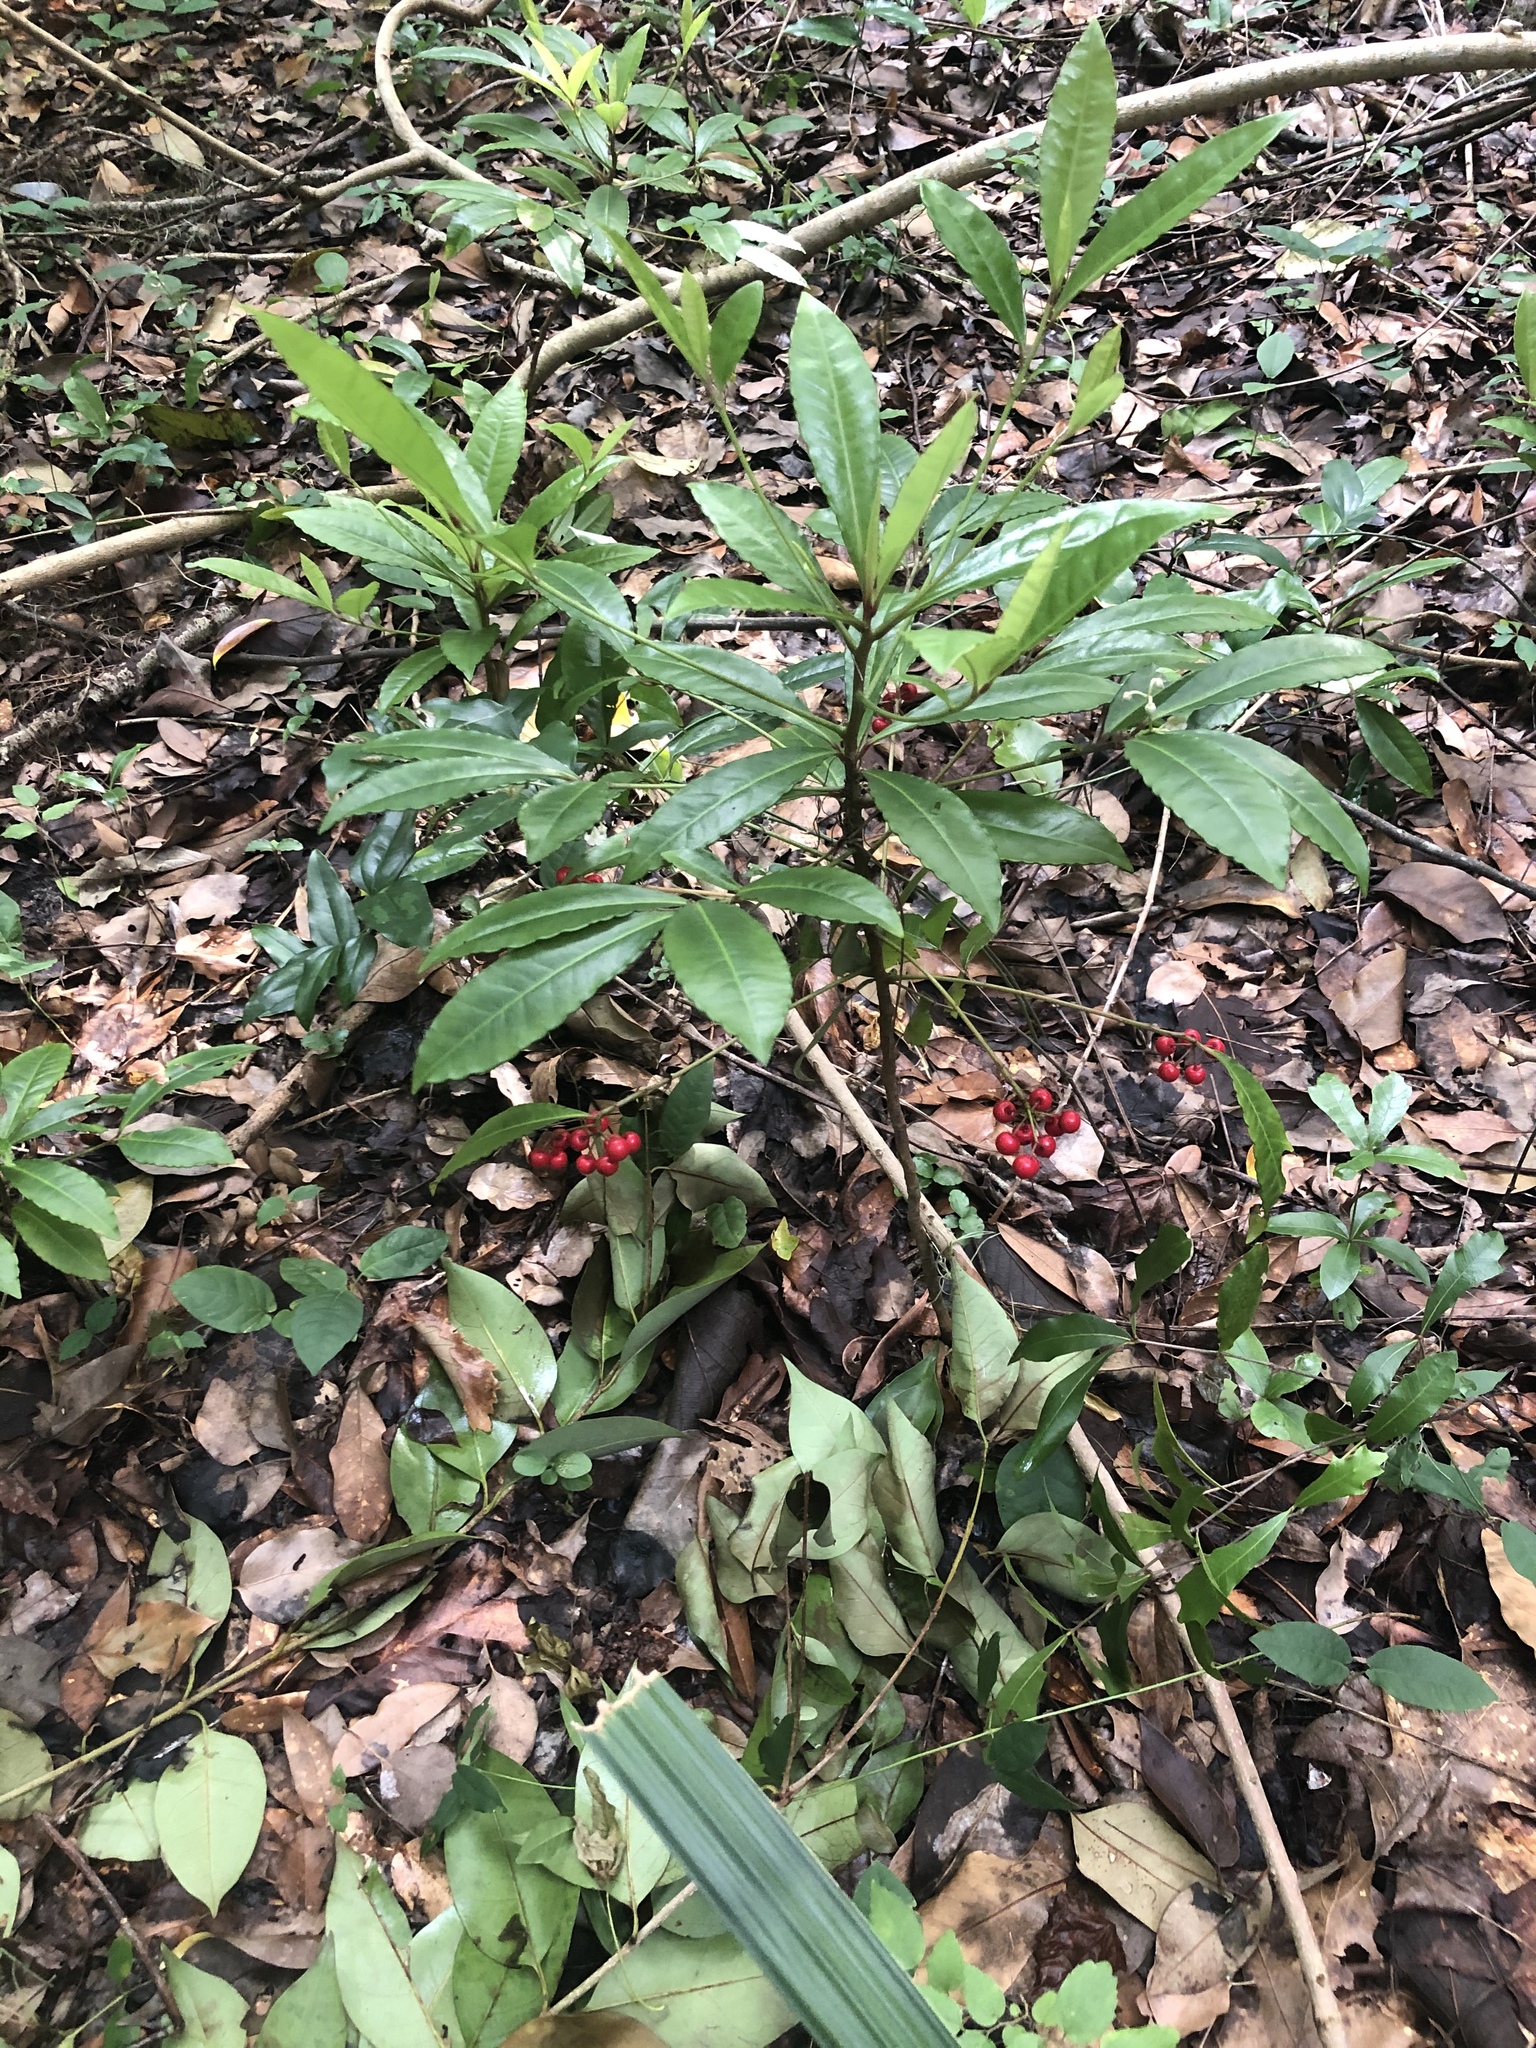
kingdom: Plantae
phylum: Tracheophyta
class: Magnoliopsida
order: Ericales
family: Primulaceae
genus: Ardisia
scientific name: Ardisia crenata
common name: Hen's eyes
